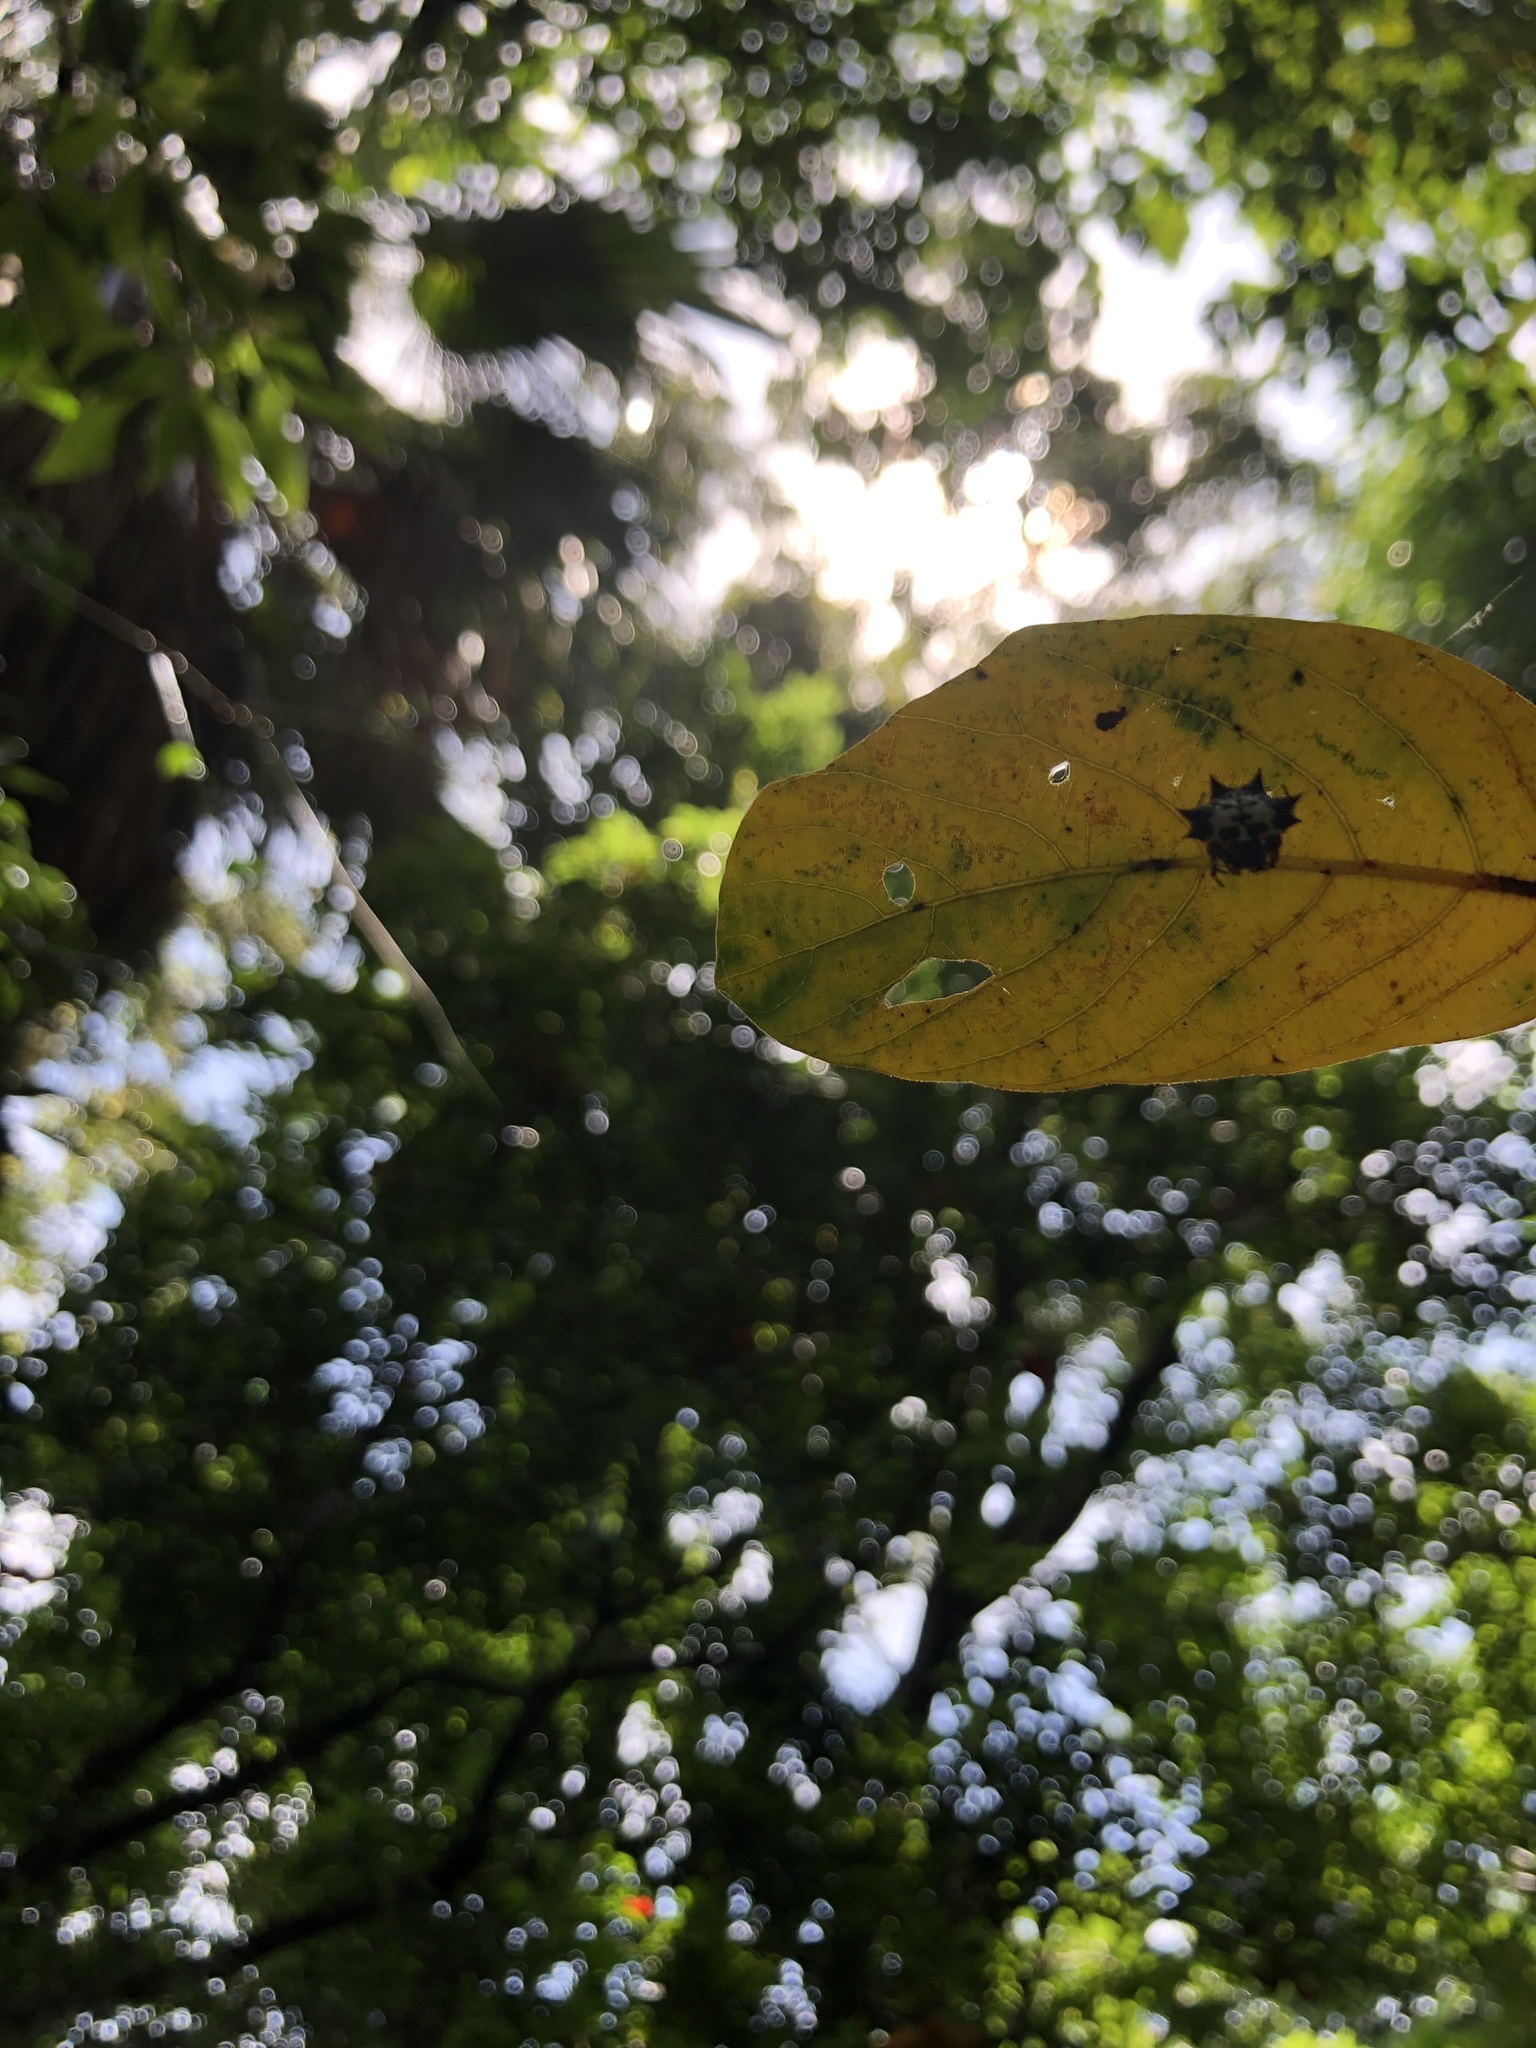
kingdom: Animalia
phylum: Arthropoda
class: Arachnida
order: Araneae
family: Araneidae
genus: Gasteracantha
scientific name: Gasteracantha kuhli
